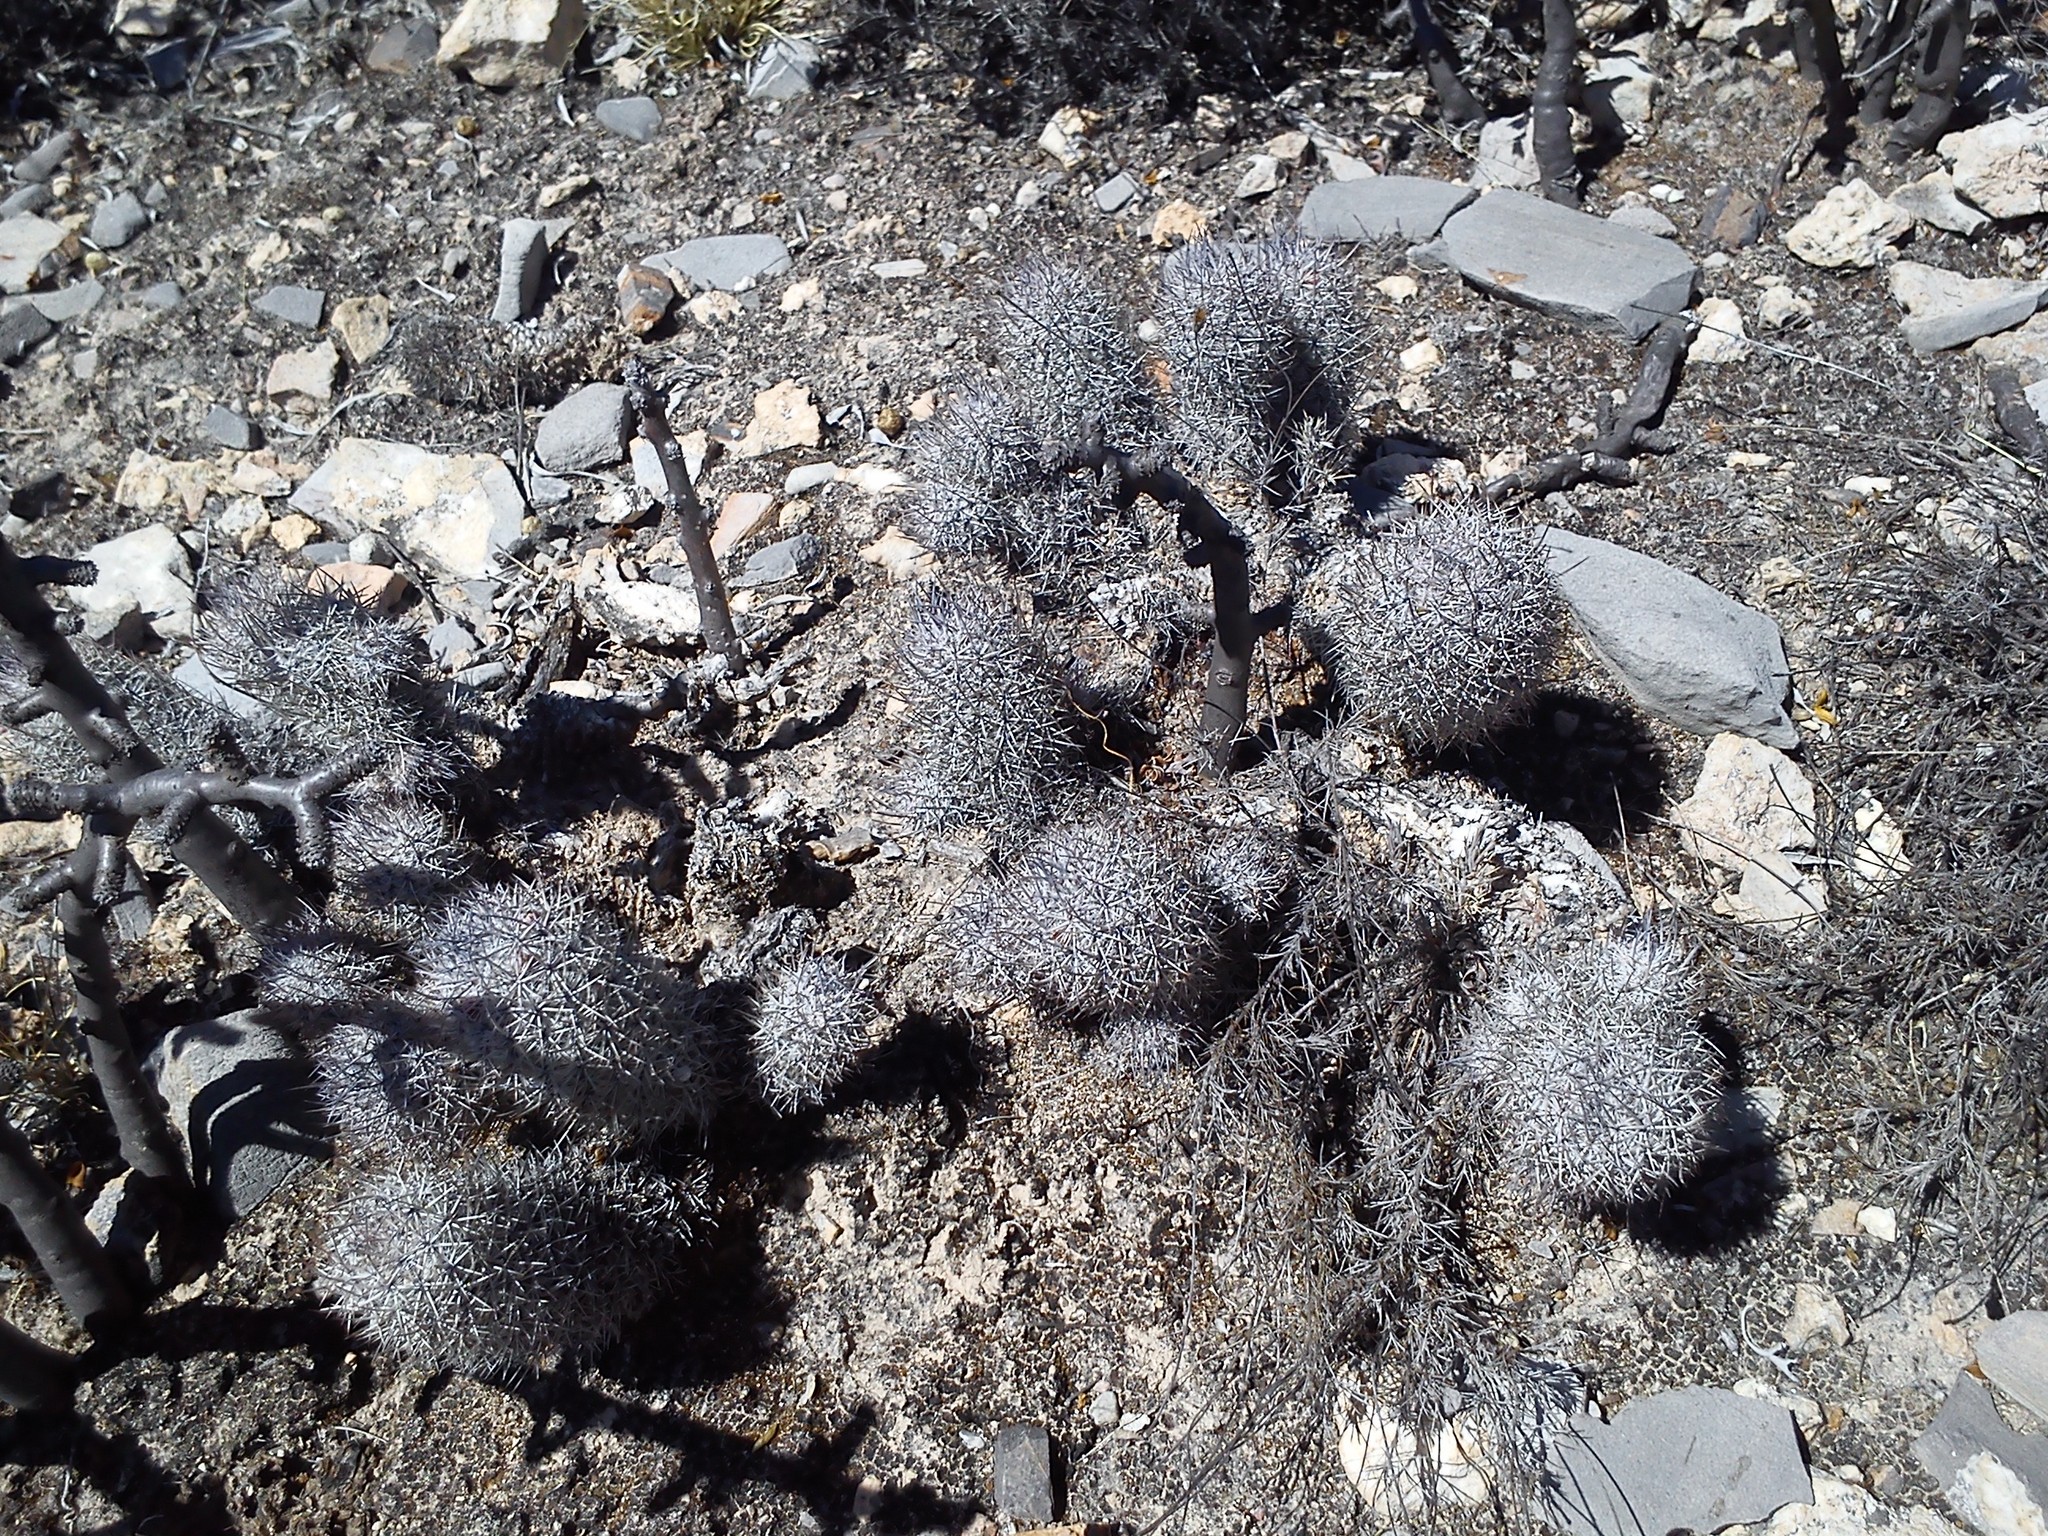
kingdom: Plantae
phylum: Tracheophyta
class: Magnoliopsida
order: Caryophyllales
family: Cactaceae
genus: Mammillaria
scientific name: Mammillaria pottsii
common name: Pott's nipple-cactus
